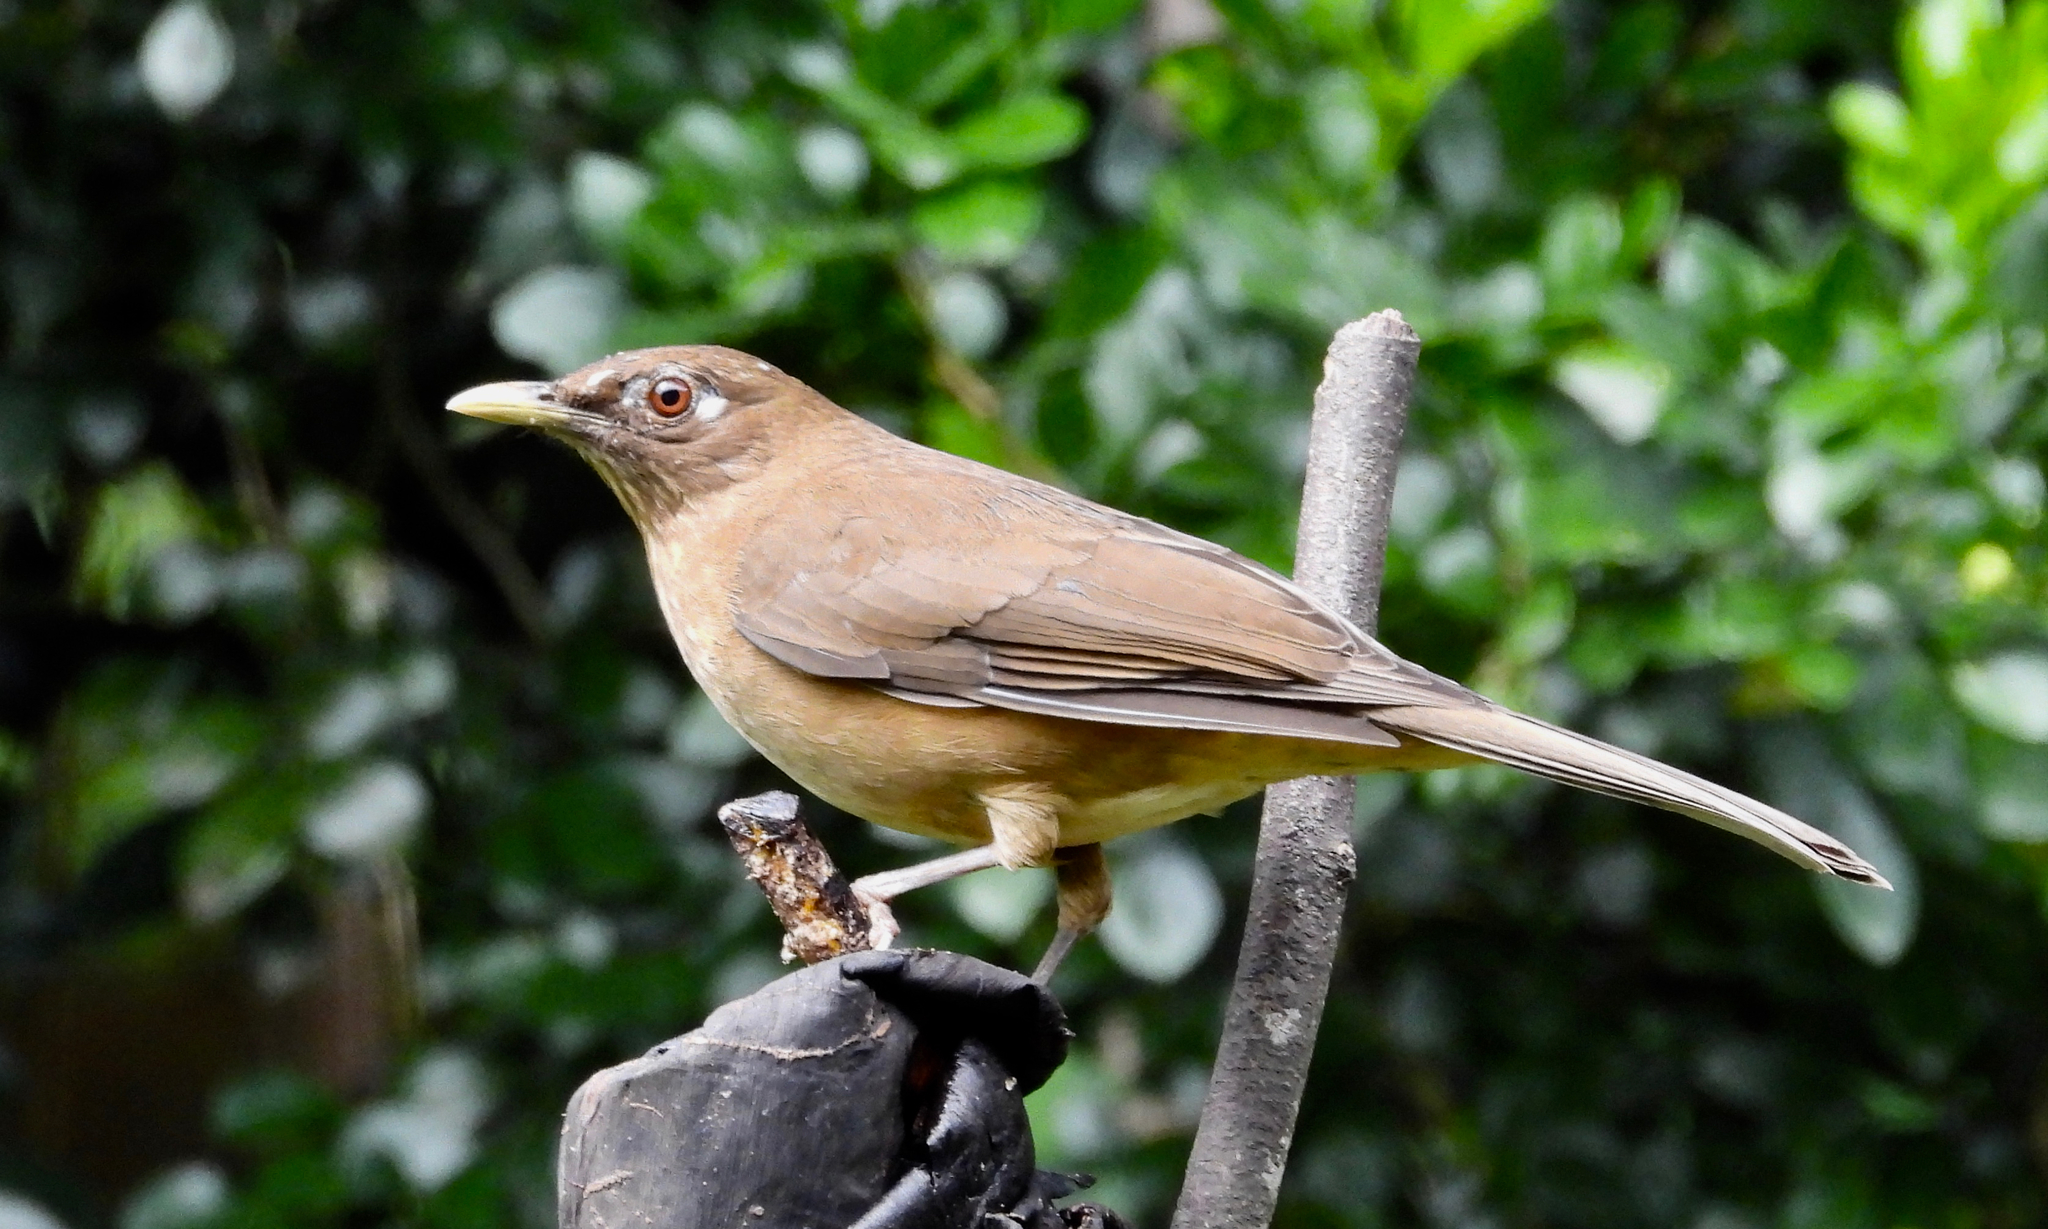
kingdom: Animalia
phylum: Chordata
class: Aves
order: Passeriformes
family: Turdidae
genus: Turdus
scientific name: Turdus grayi
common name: Clay-colored thrush
